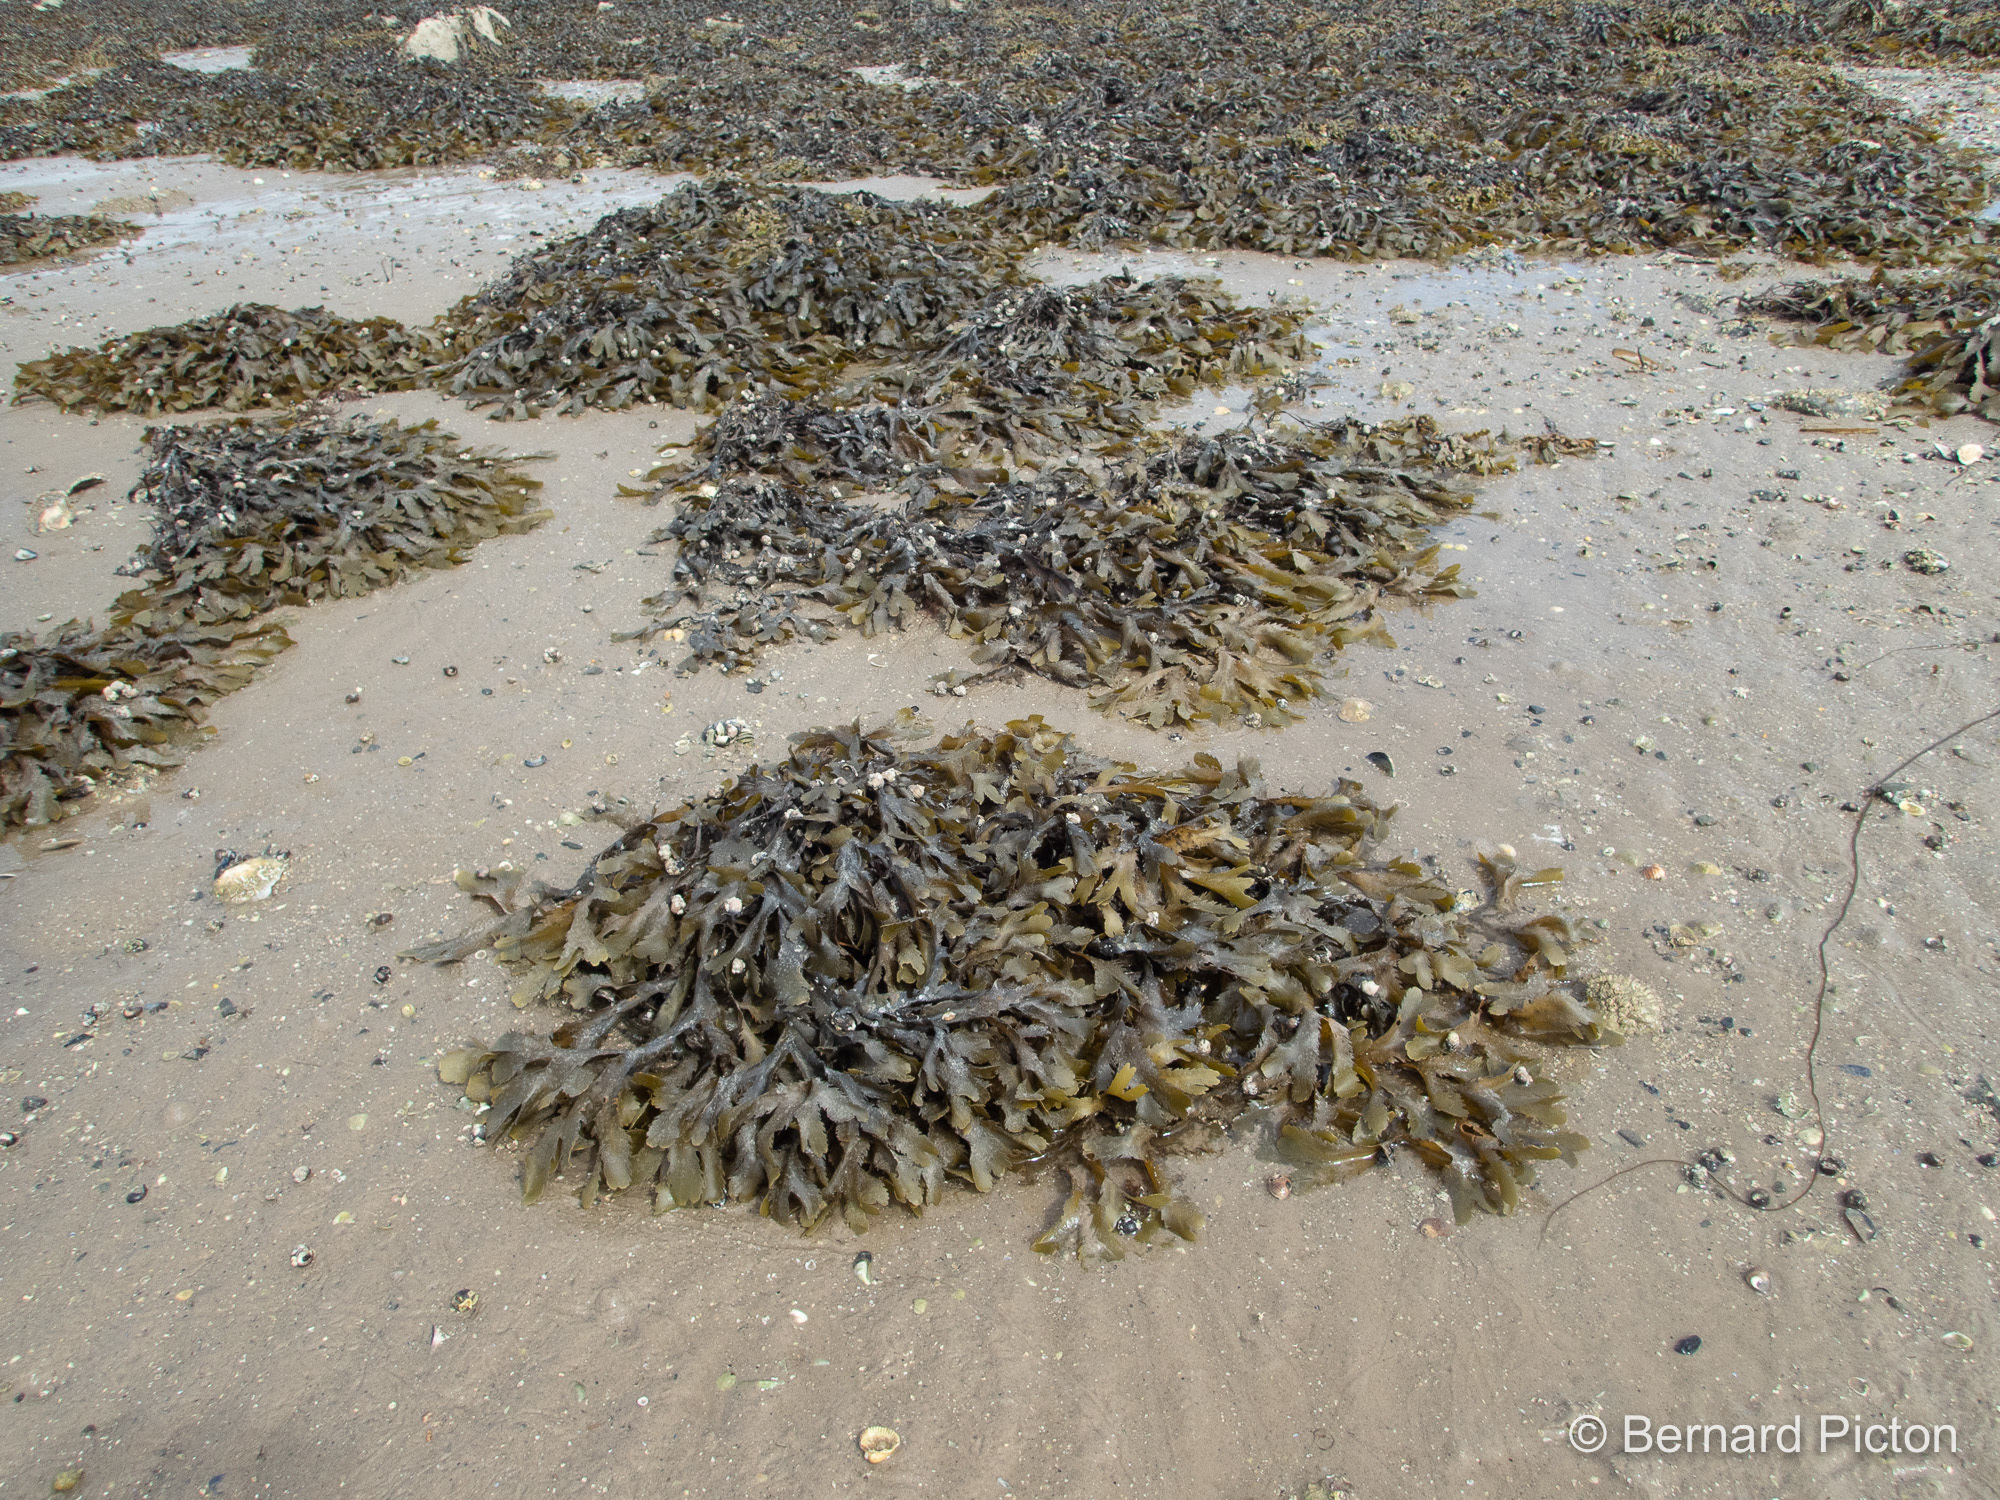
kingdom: Chromista
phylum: Ochrophyta
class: Phaeophyceae
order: Fucales
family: Fucaceae
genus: Fucus
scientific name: Fucus serratus
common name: Toothed wrack
